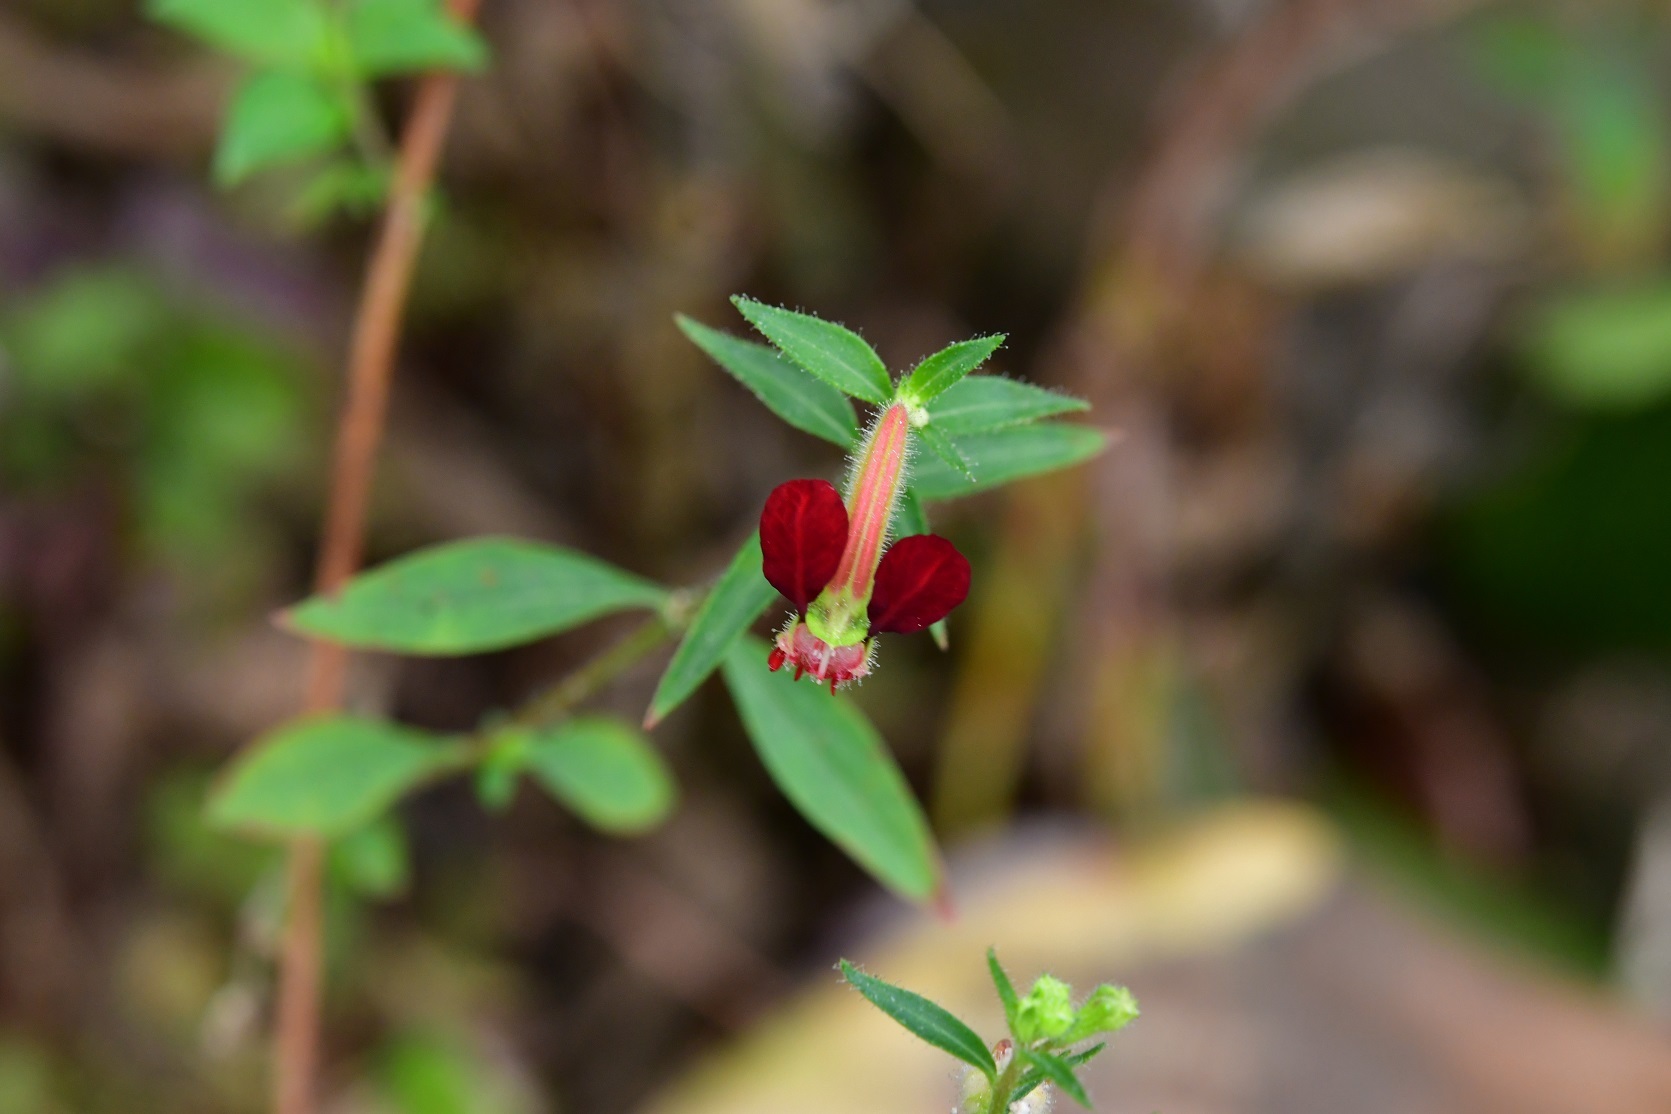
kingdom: Plantae
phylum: Tracheophyta
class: Magnoliopsida
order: Myrtales
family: Lythraceae
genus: Cuphea
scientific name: Cuphea hookeriana
